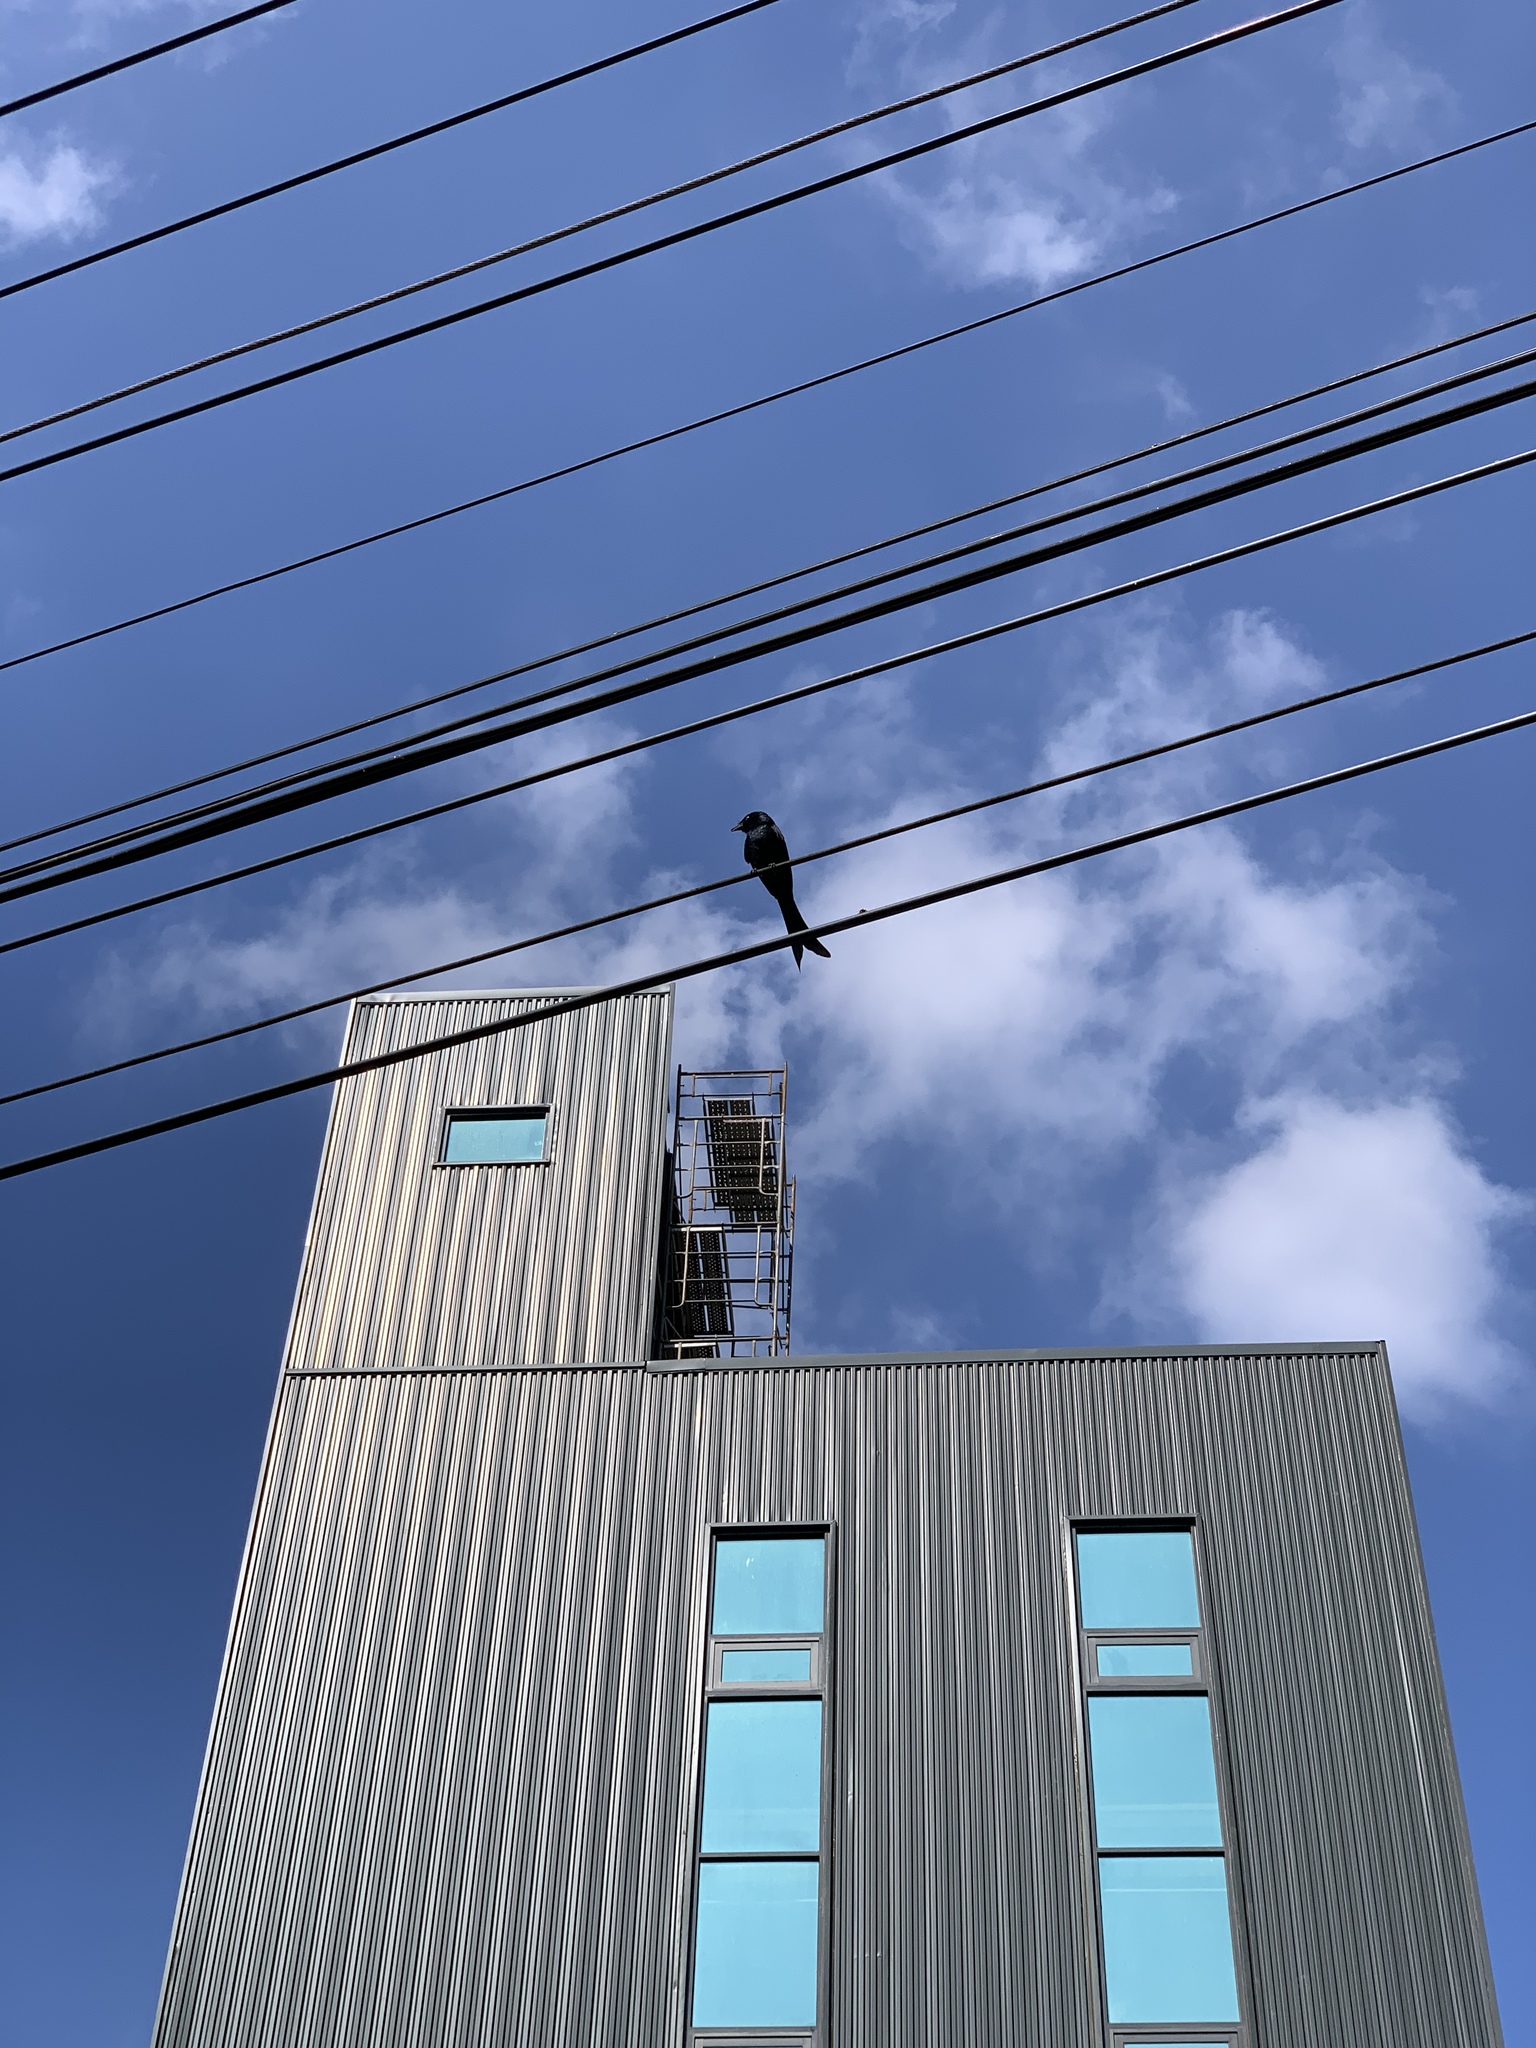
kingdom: Animalia
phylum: Chordata
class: Aves
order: Passeriformes
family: Dicruridae
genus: Dicrurus
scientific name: Dicrurus macrocercus
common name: Black drongo
